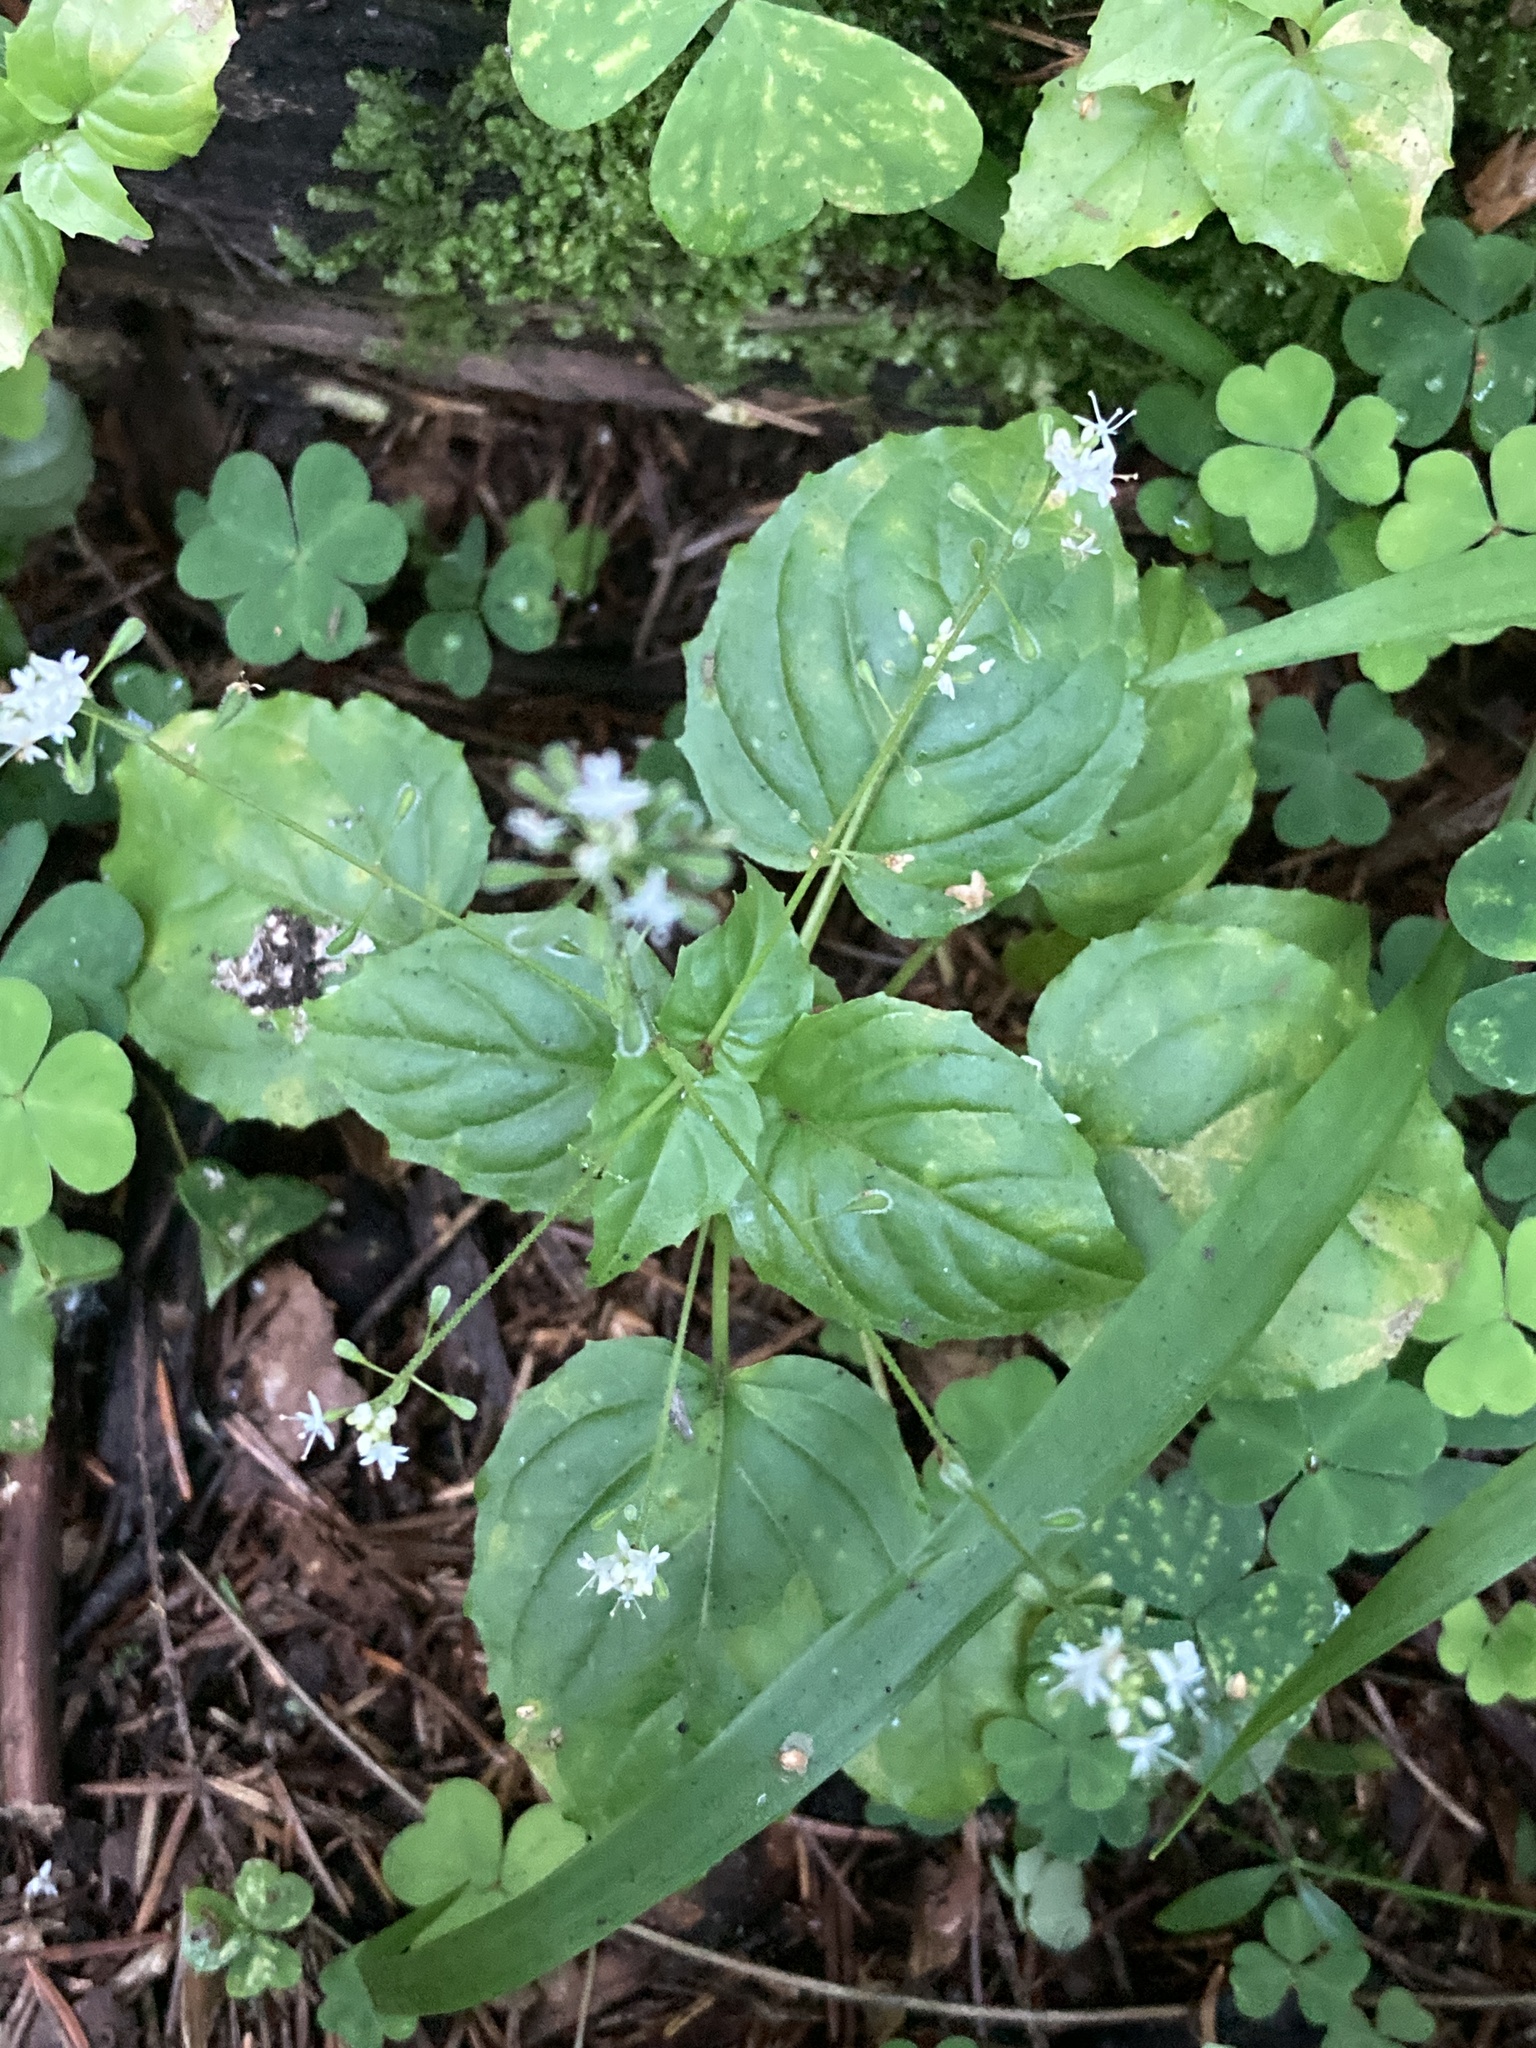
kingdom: Plantae
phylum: Tracheophyta
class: Magnoliopsida
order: Myrtales
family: Onagraceae
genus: Circaea
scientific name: Circaea alpina
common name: Alpine enchanter's-nightshade
